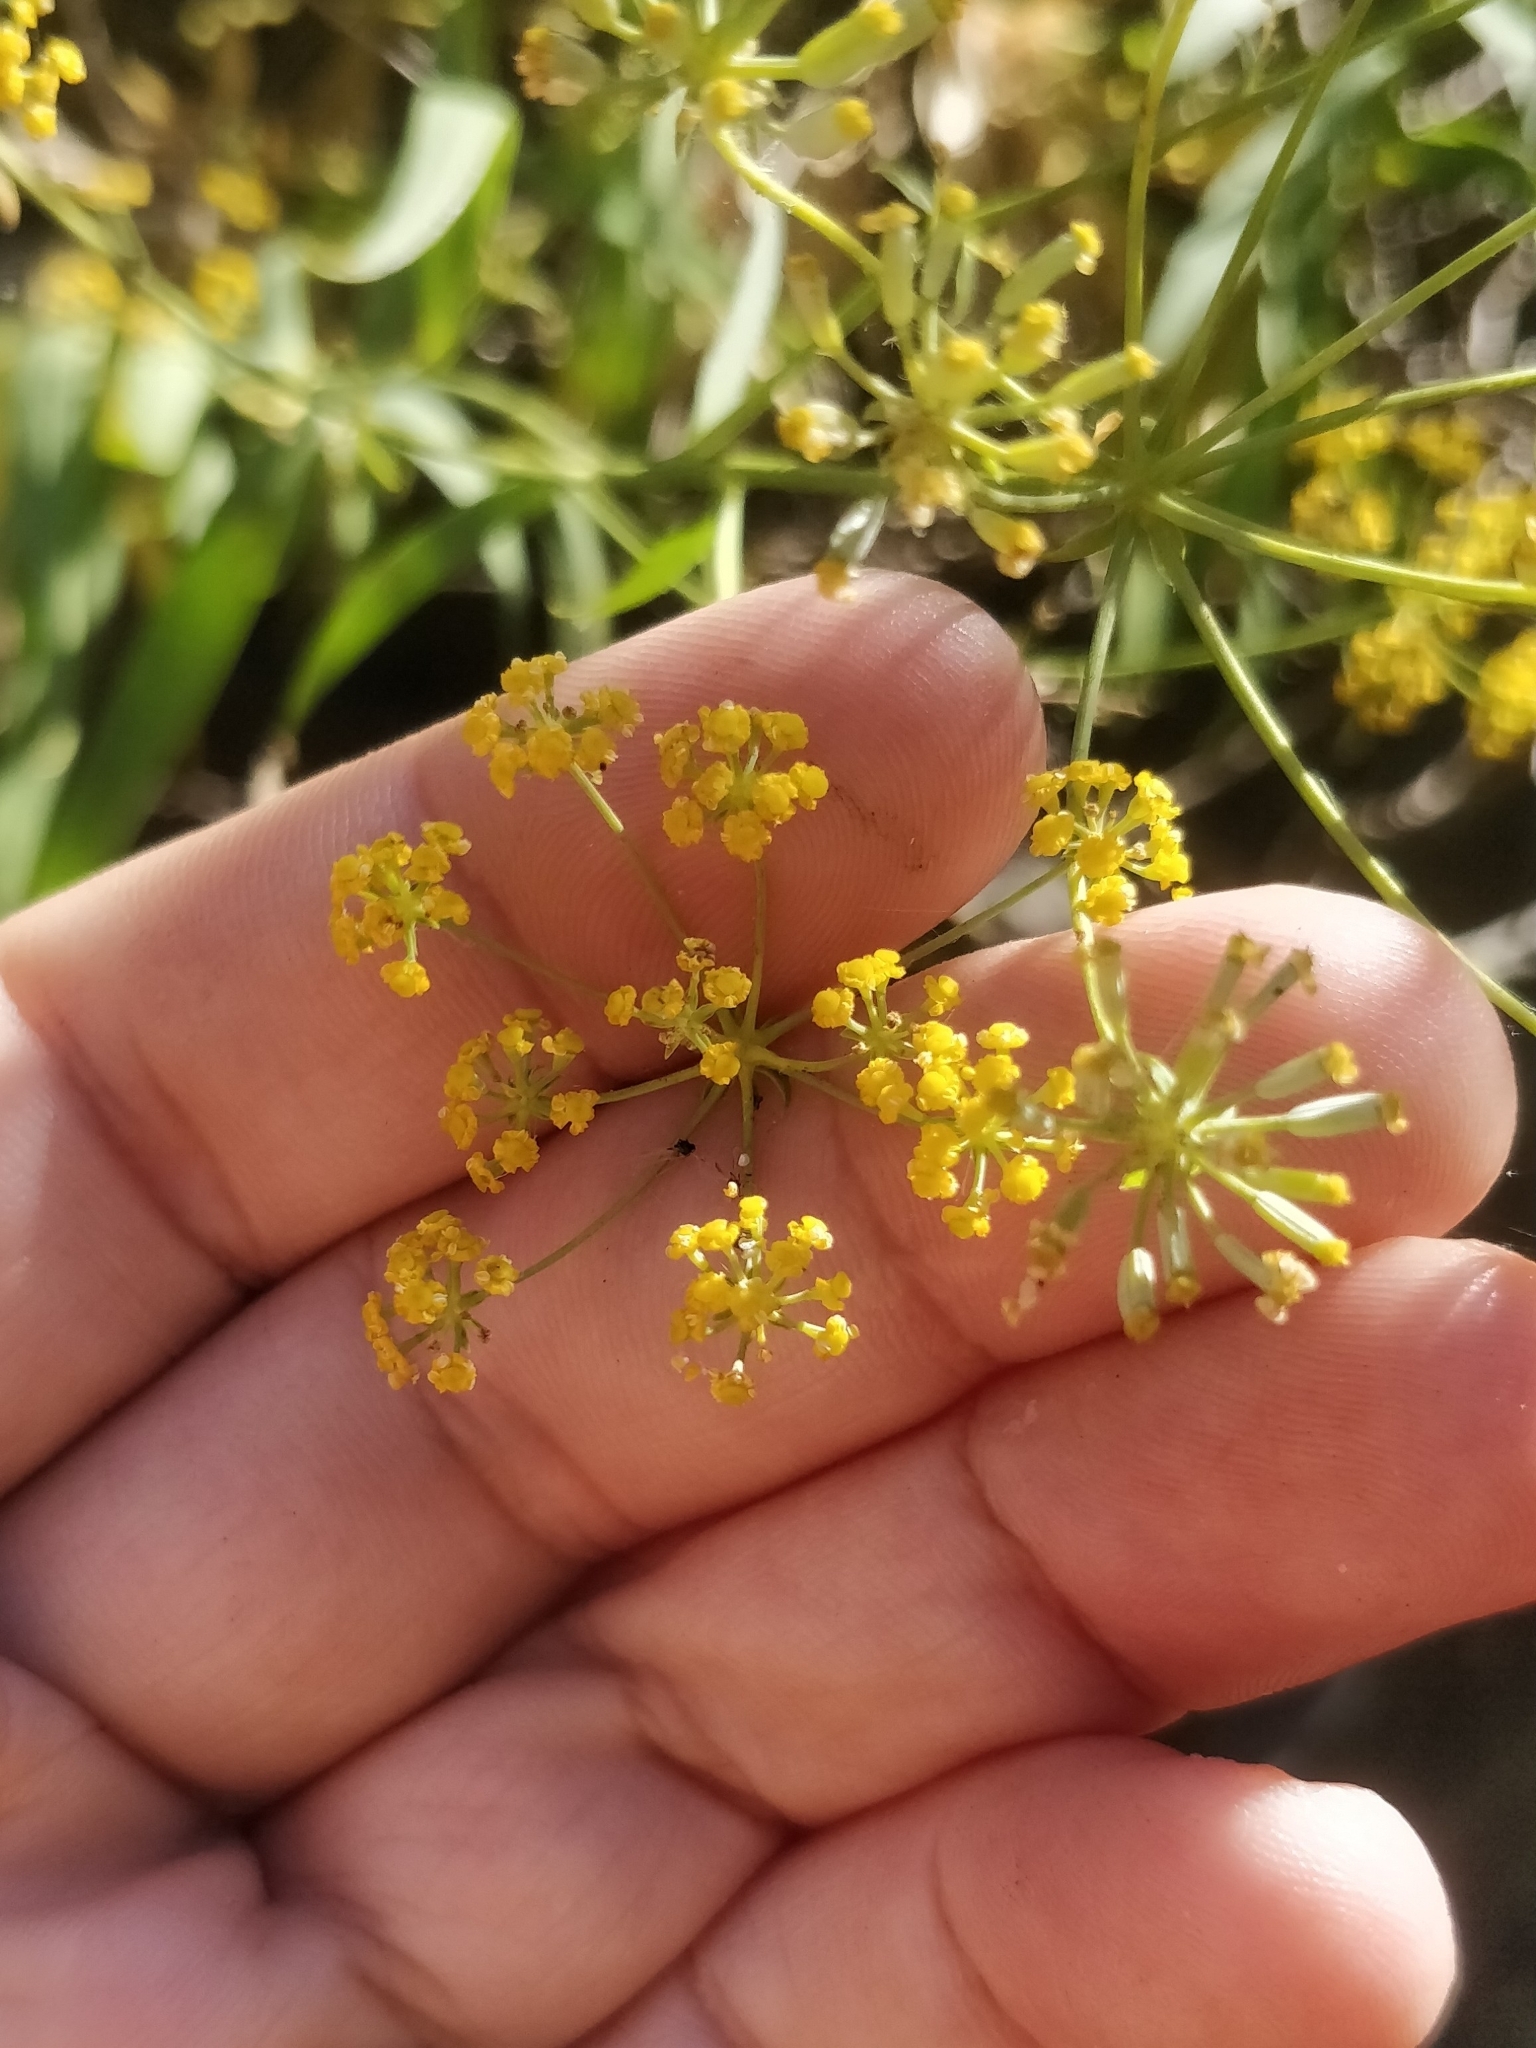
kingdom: Plantae
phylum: Tracheophyta
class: Magnoliopsida
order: Apiales
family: Apiaceae
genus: Bupleurum
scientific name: Bupleurum salicifolium
